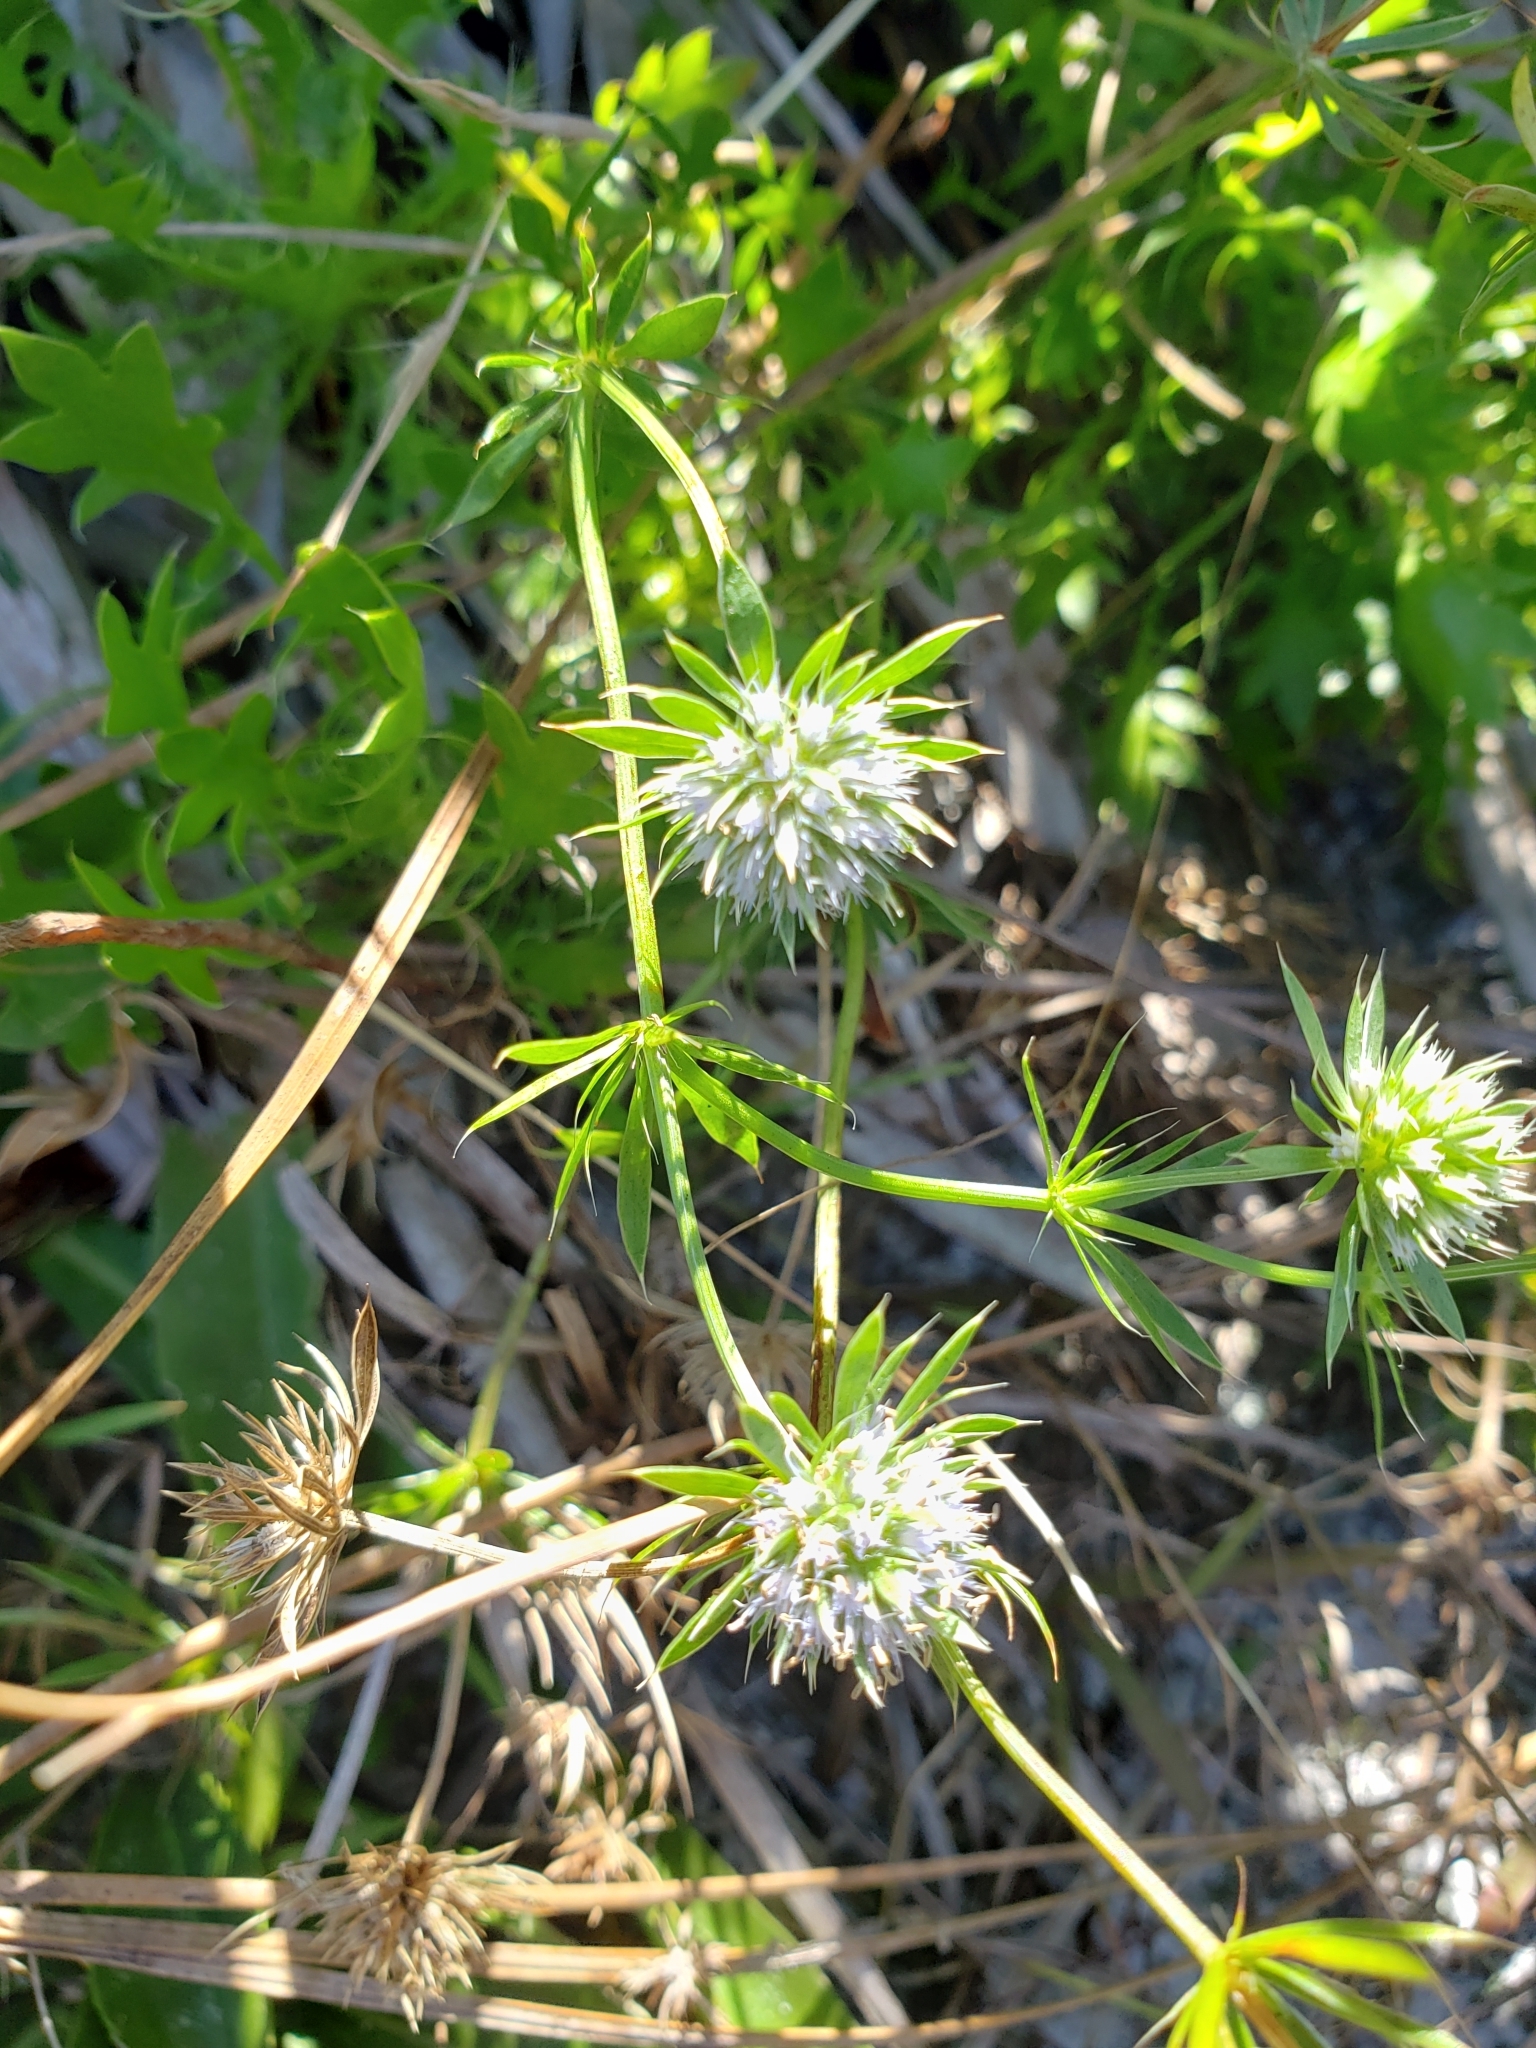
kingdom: Plantae
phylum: Tracheophyta
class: Magnoliopsida
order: Apiales
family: Apiaceae
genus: Eryngium
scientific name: Eryngium aromaticum
